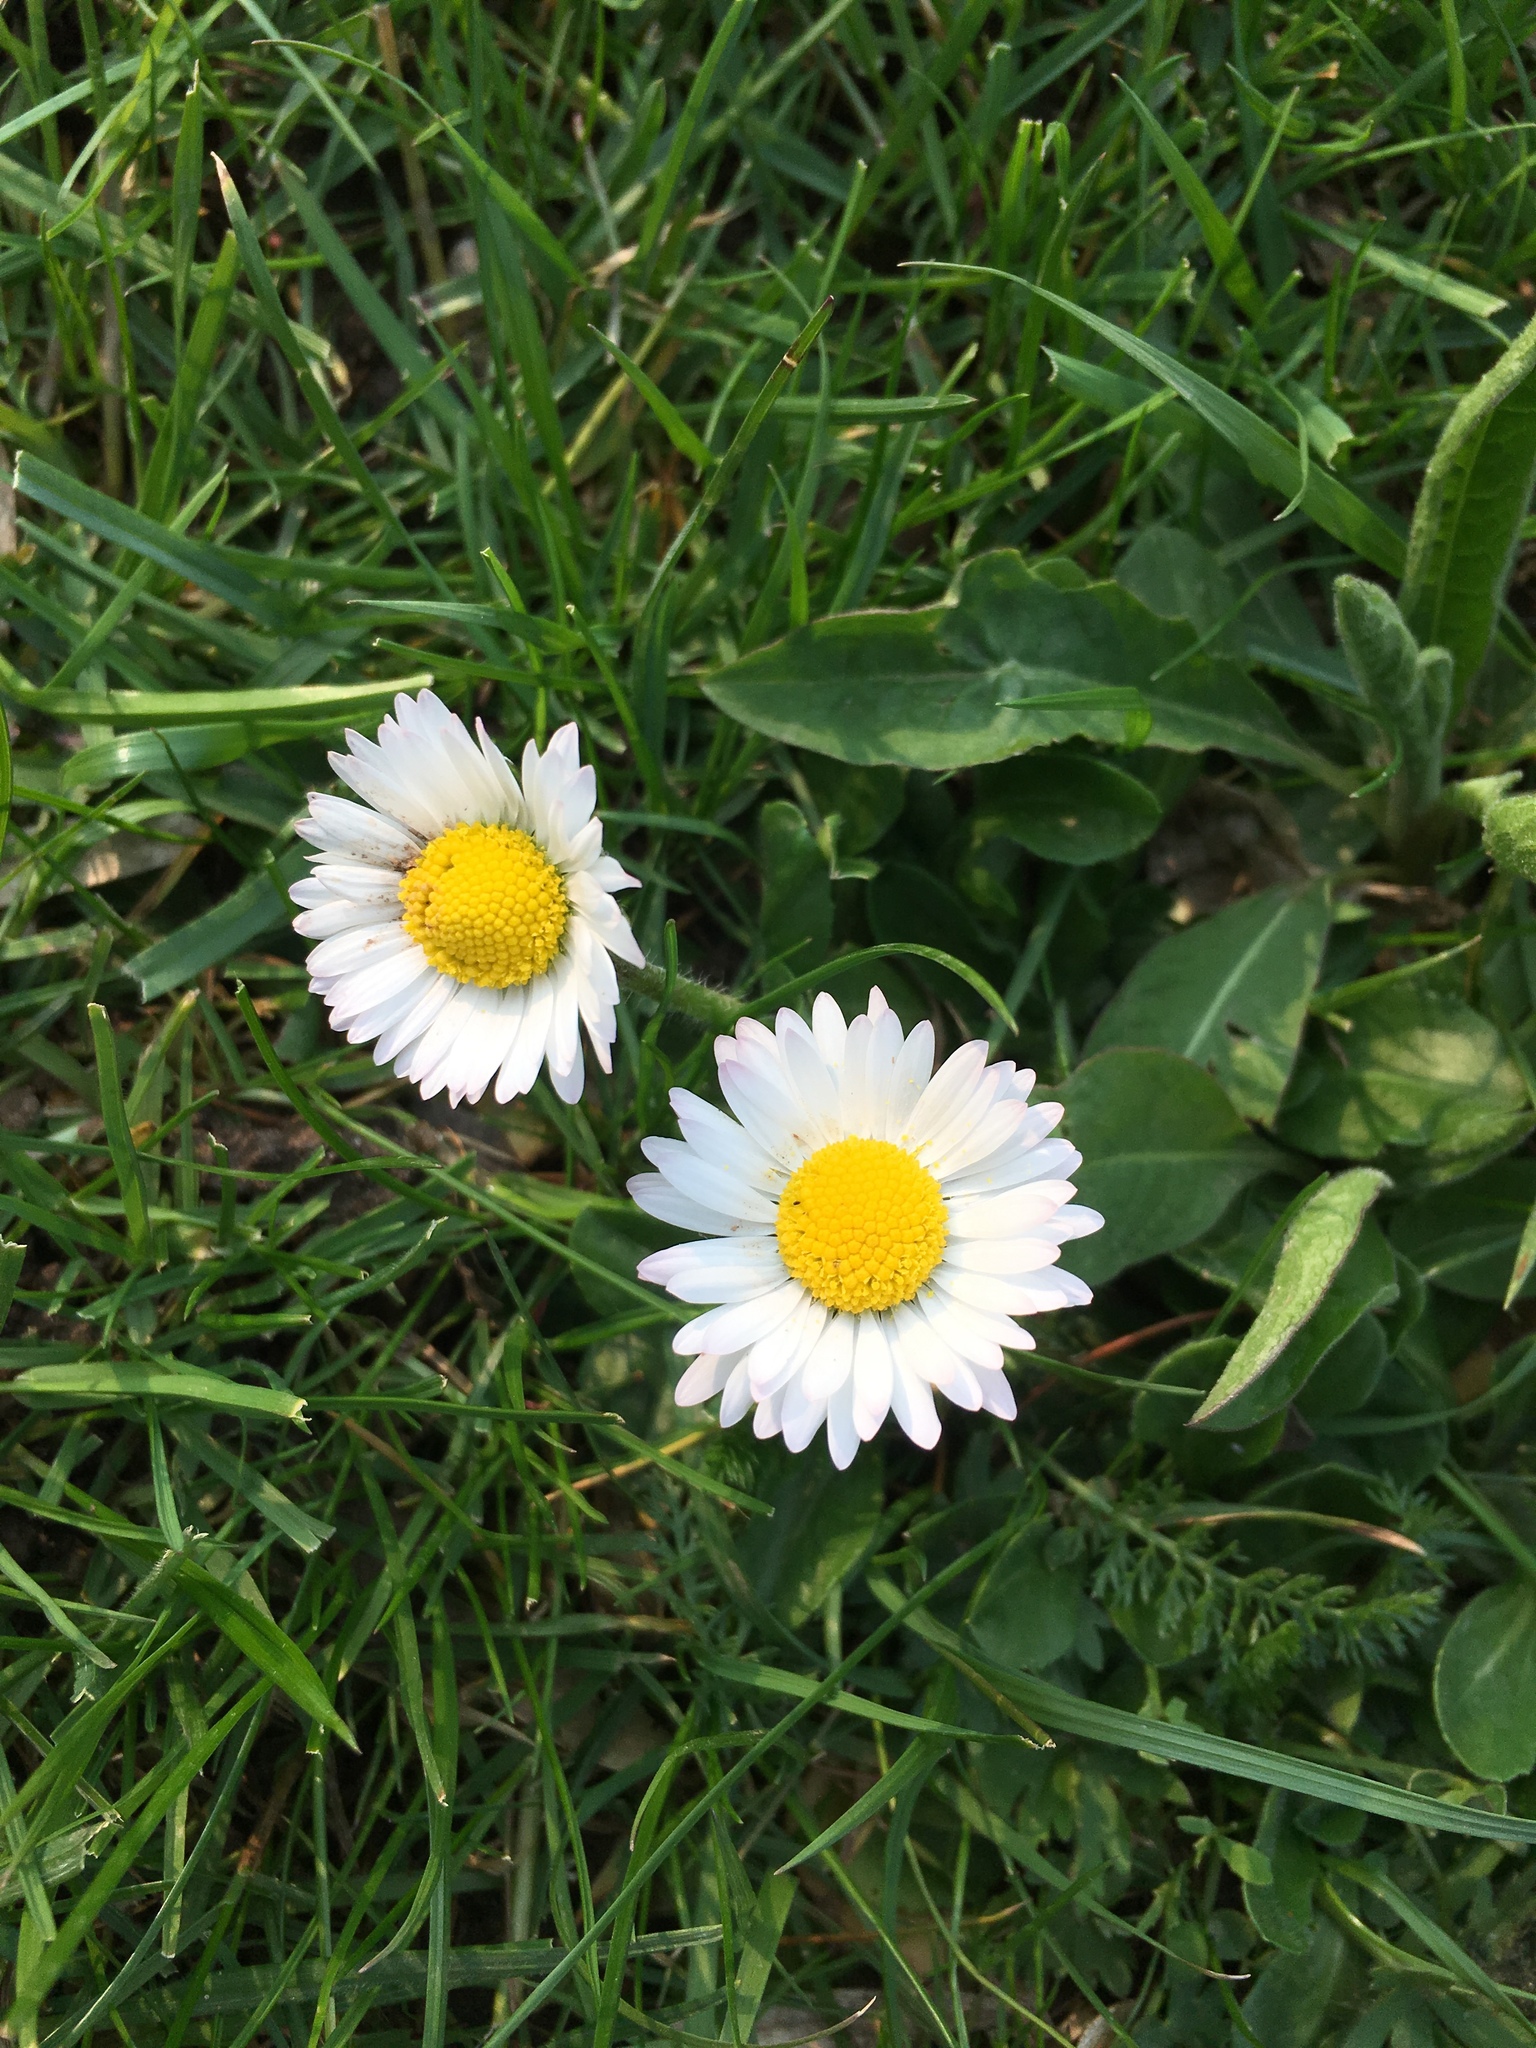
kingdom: Plantae
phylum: Tracheophyta
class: Magnoliopsida
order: Asterales
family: Asteraceae
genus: Bellis
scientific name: Bellis perennis
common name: Lawndaisy
